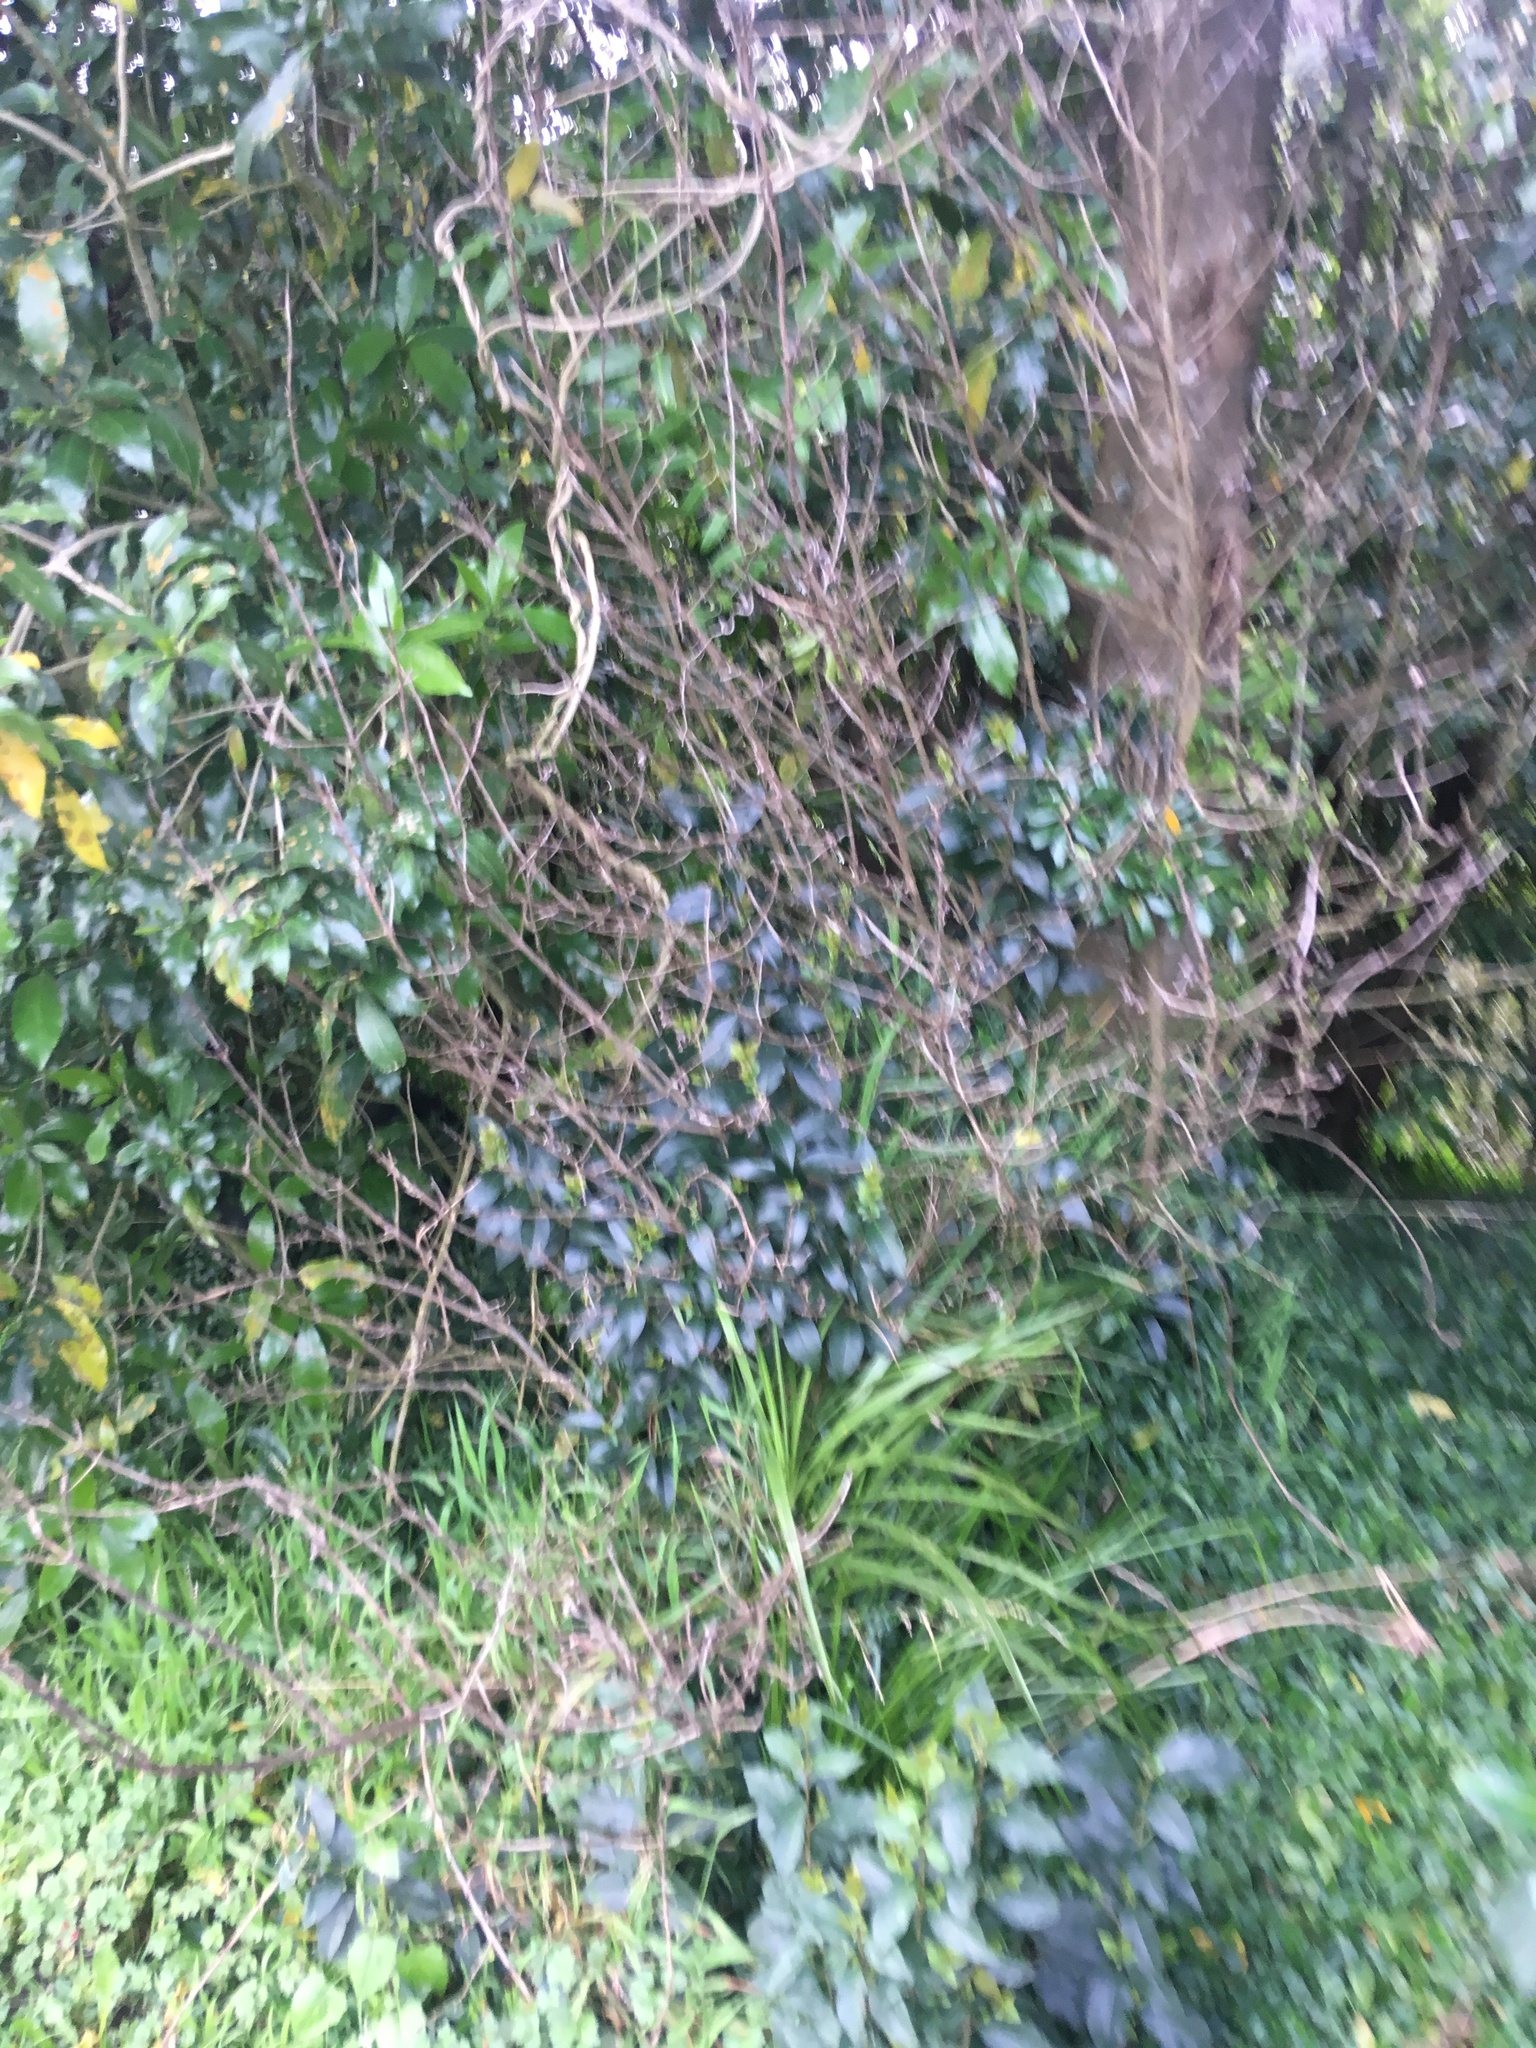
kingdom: Plantae
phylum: Tracheophyta
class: Magnoliopsida
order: Lamiales
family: Oleaceae
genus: Ligustrum
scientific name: Ligustrum lucidum
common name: Glossy privet
